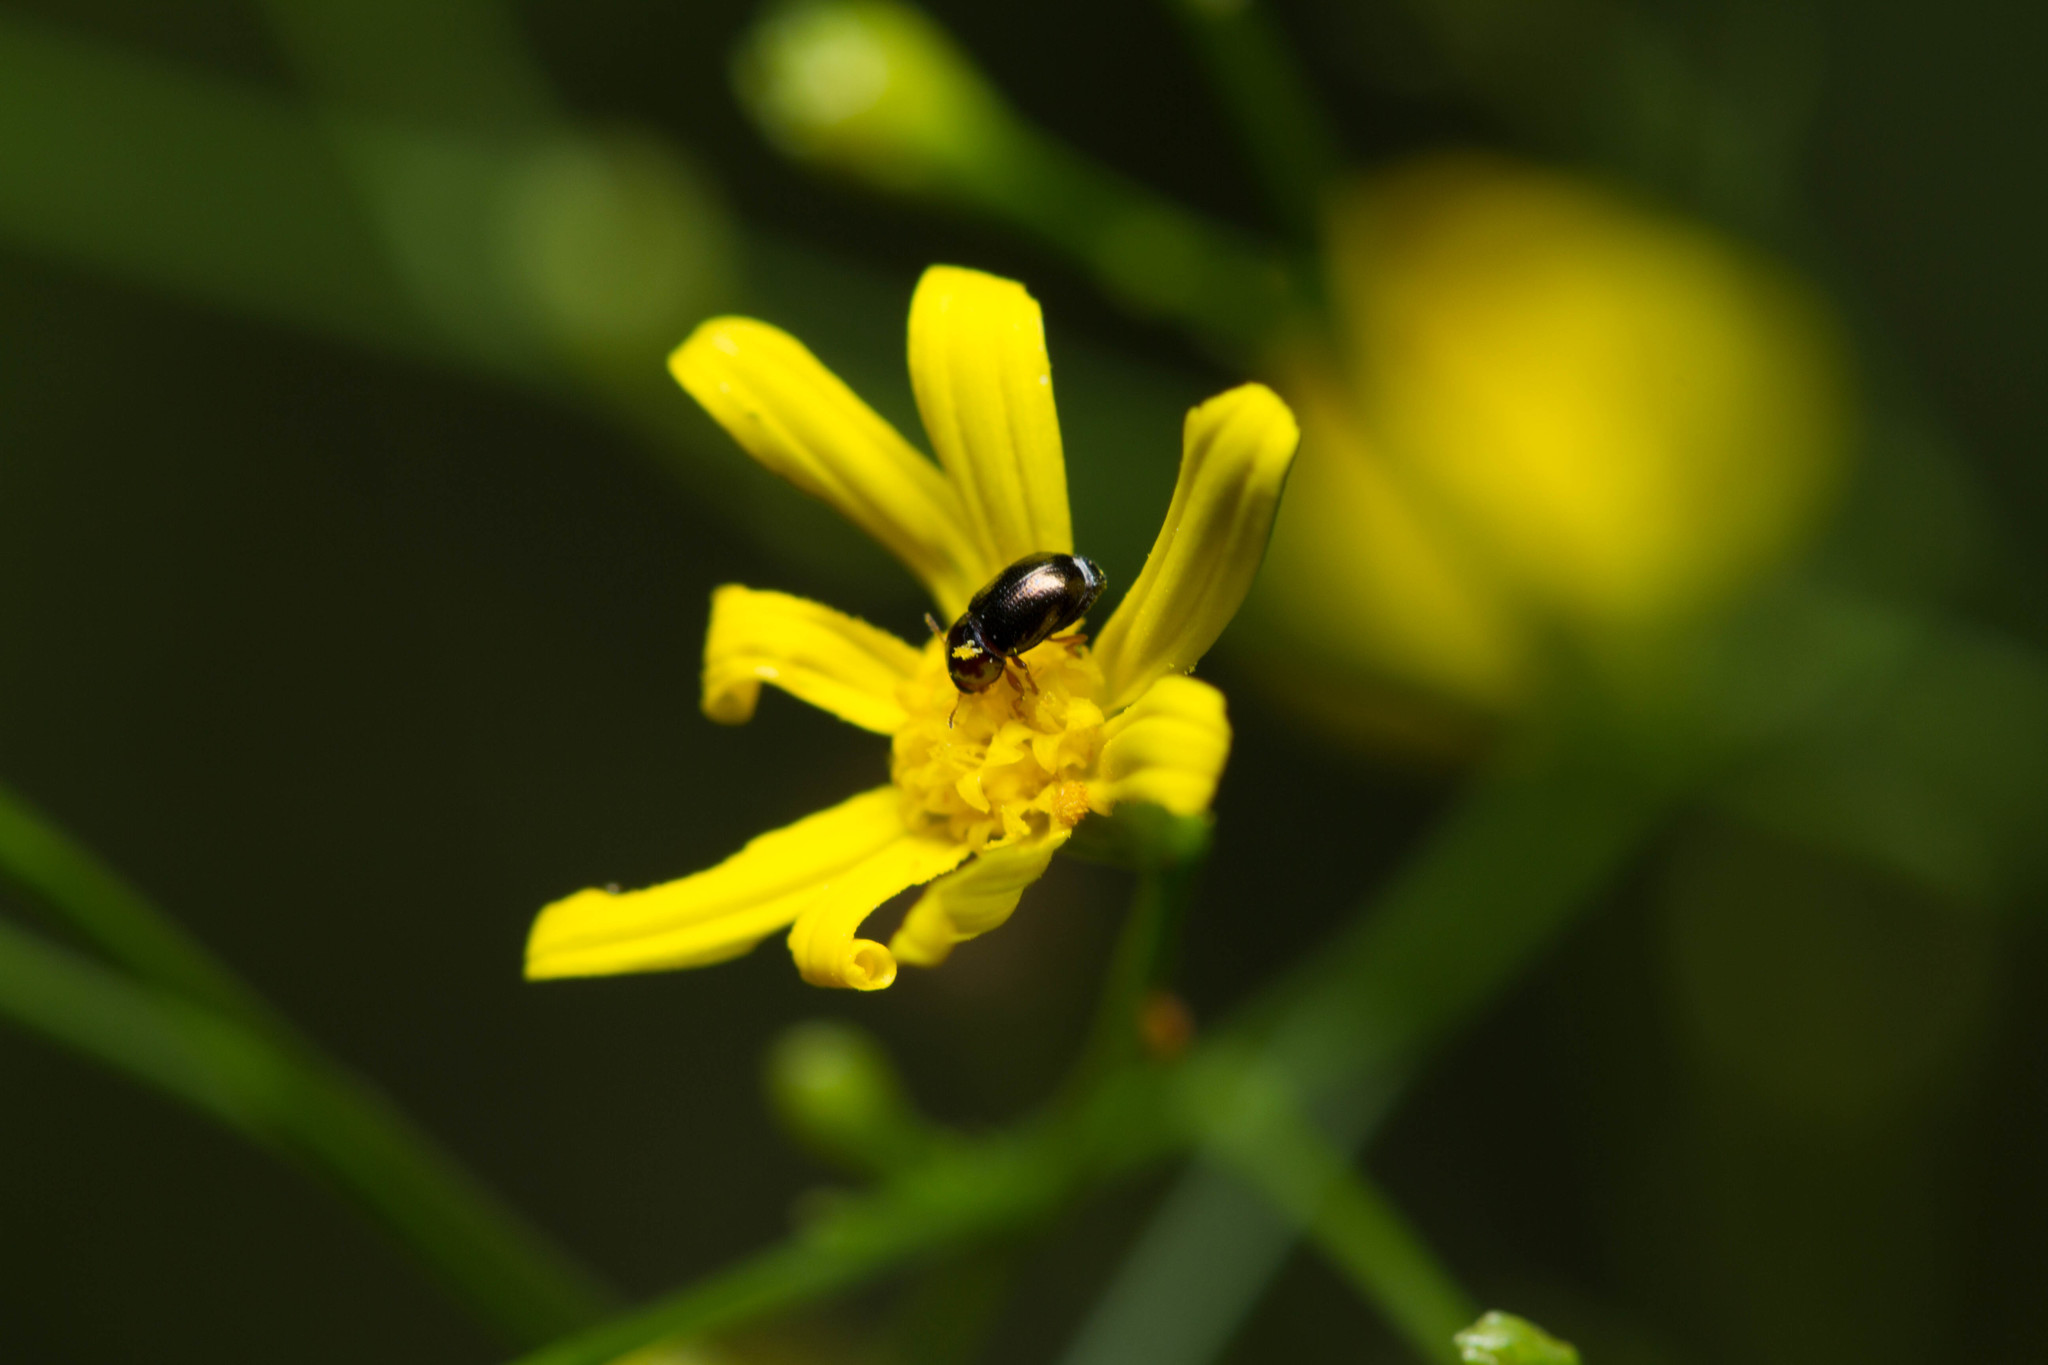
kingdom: Animalia
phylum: Arthropoda
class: Insecta
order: Coleoptera
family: Chrysomelidae
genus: Diachus
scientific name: Diachus auratus
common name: Bronze leaf beetle
